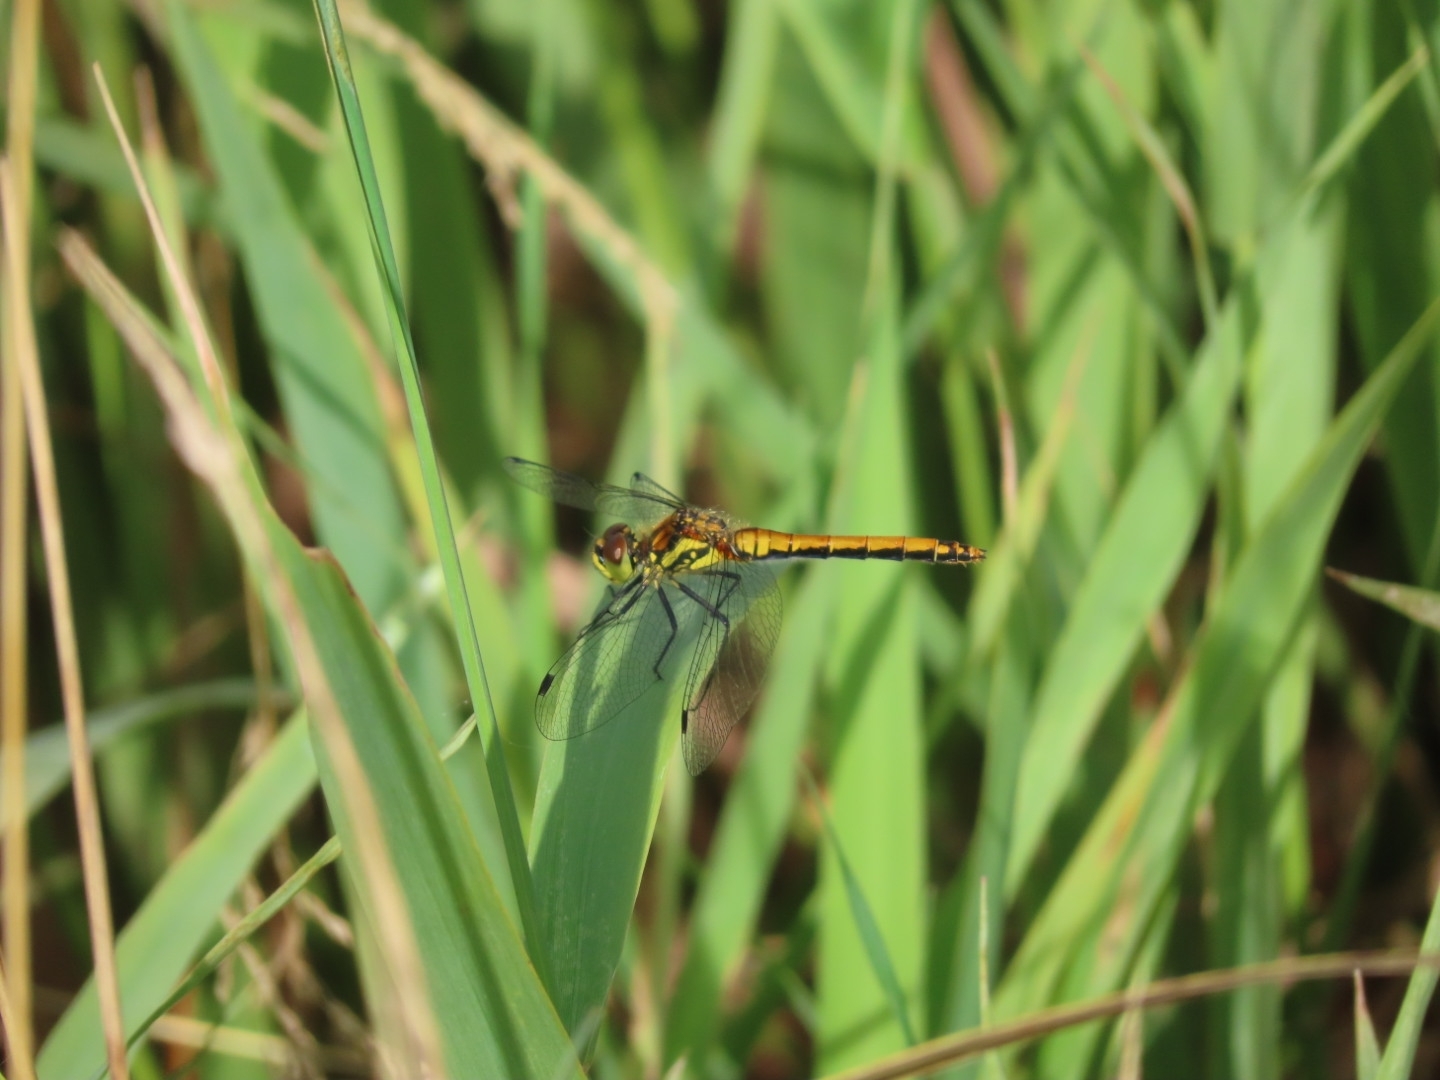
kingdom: Animalia
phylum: Arthropoda
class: Insecta
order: Odonata
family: Libellulidae
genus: Sympetrum
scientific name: Sympetrum danae
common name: Black darter
